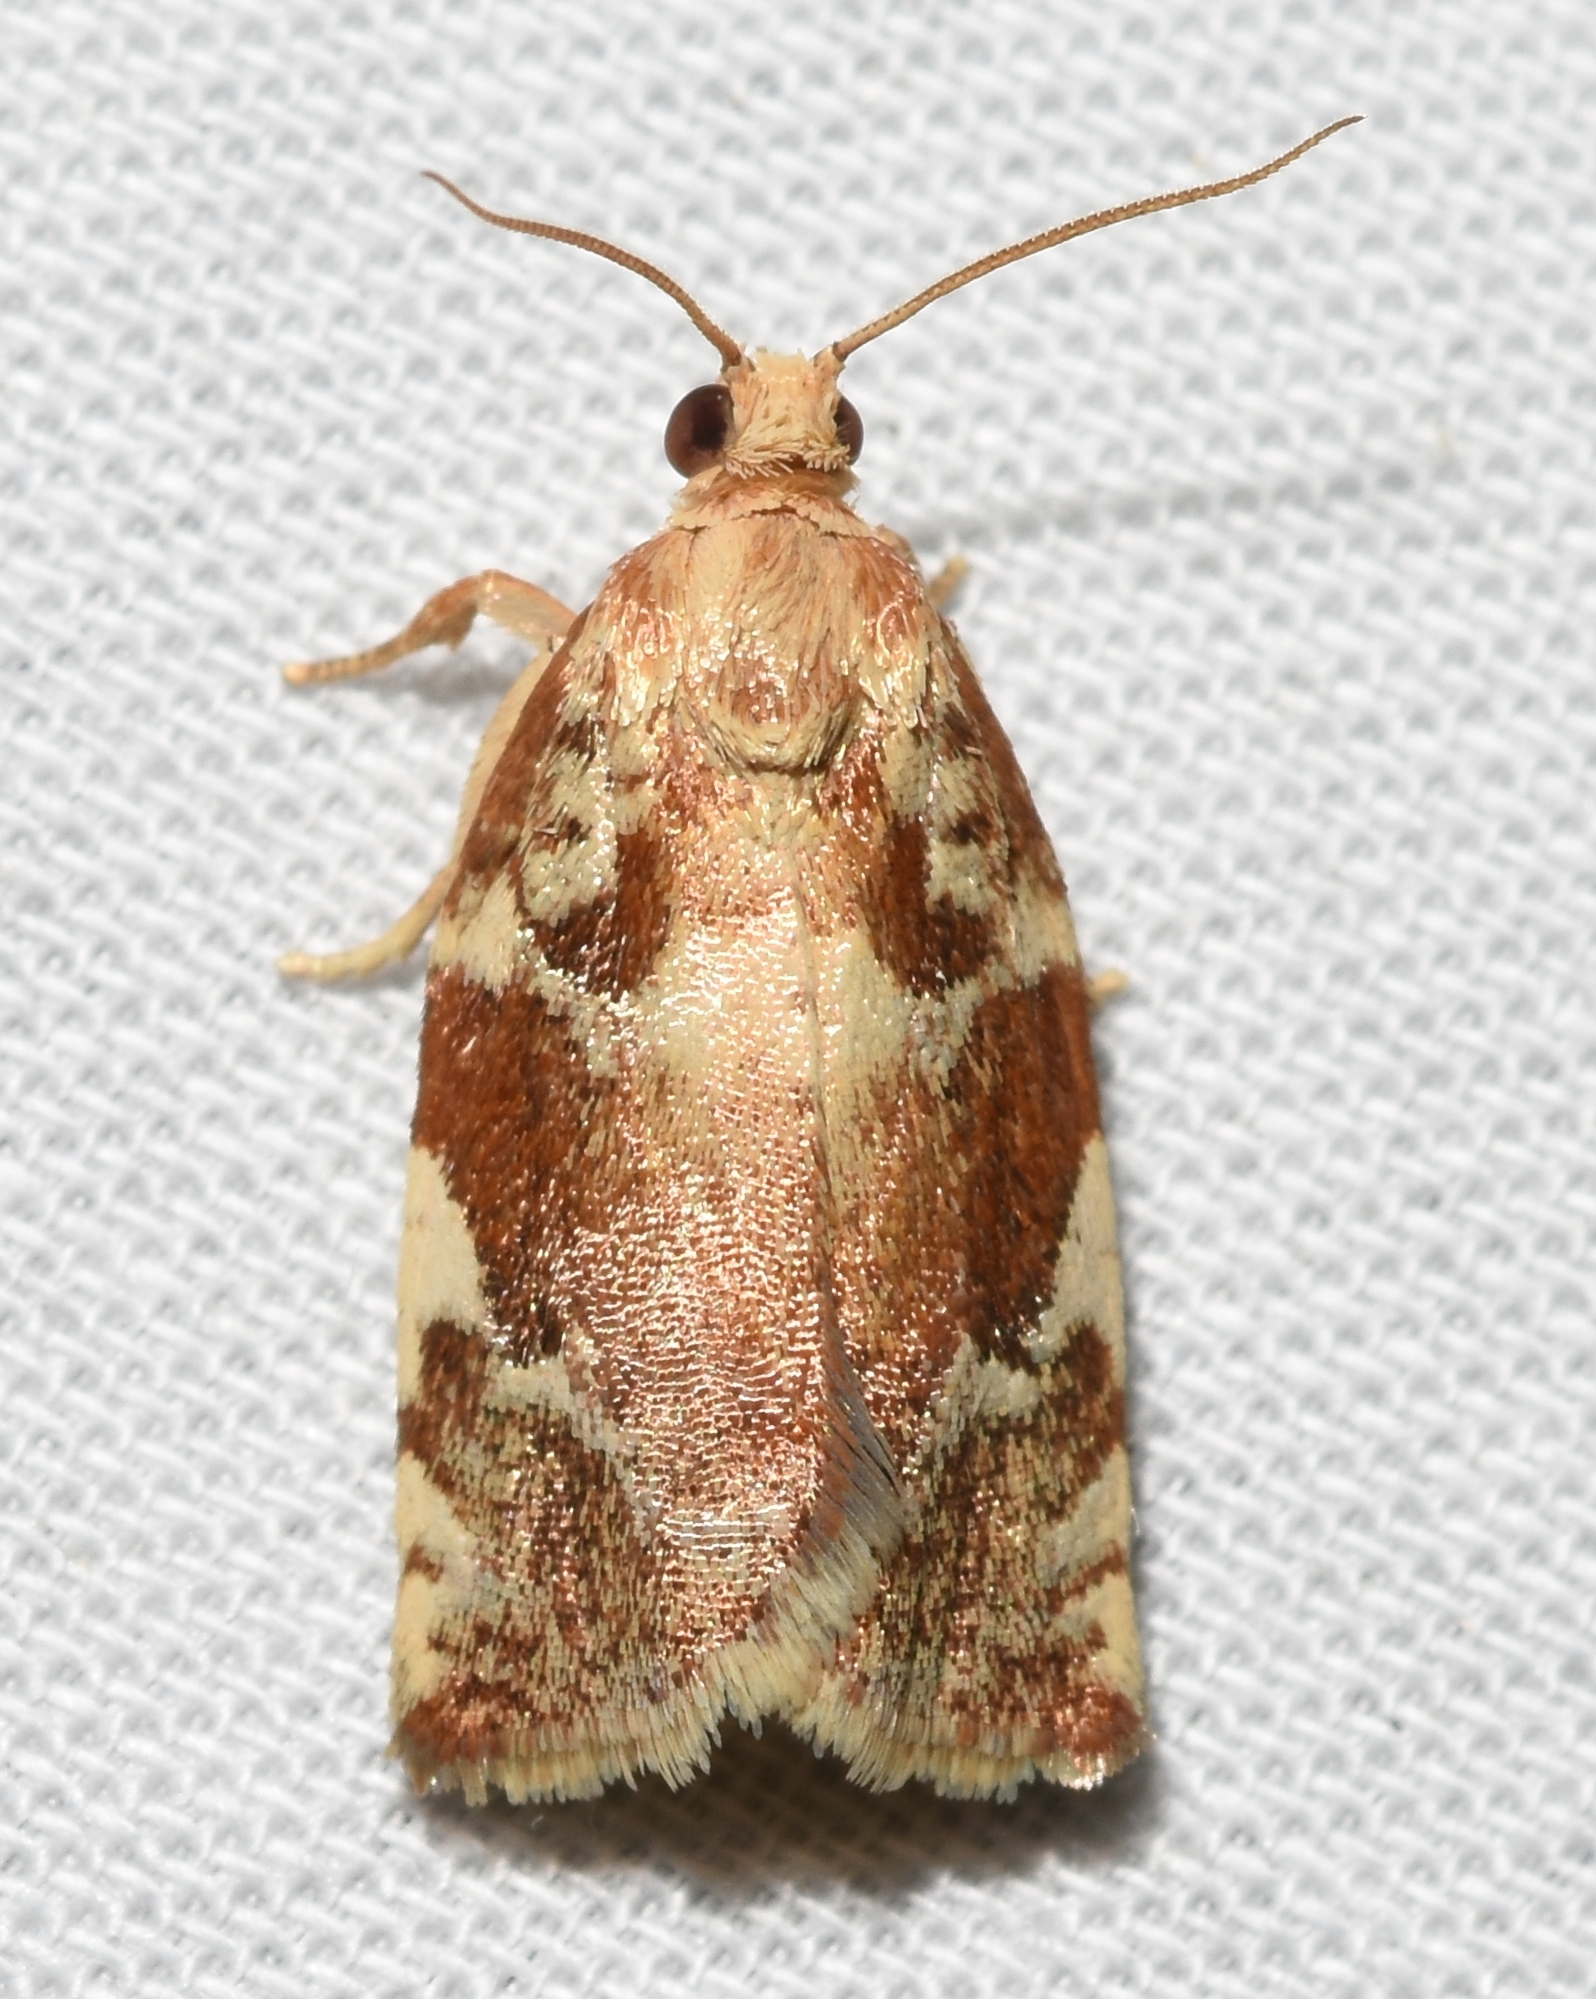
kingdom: Animalia
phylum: Arthropoda
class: Insecta
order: Lepidoptera
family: Tortricidae
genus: Archips
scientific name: Archips semiferanus
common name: Oak leafroller
